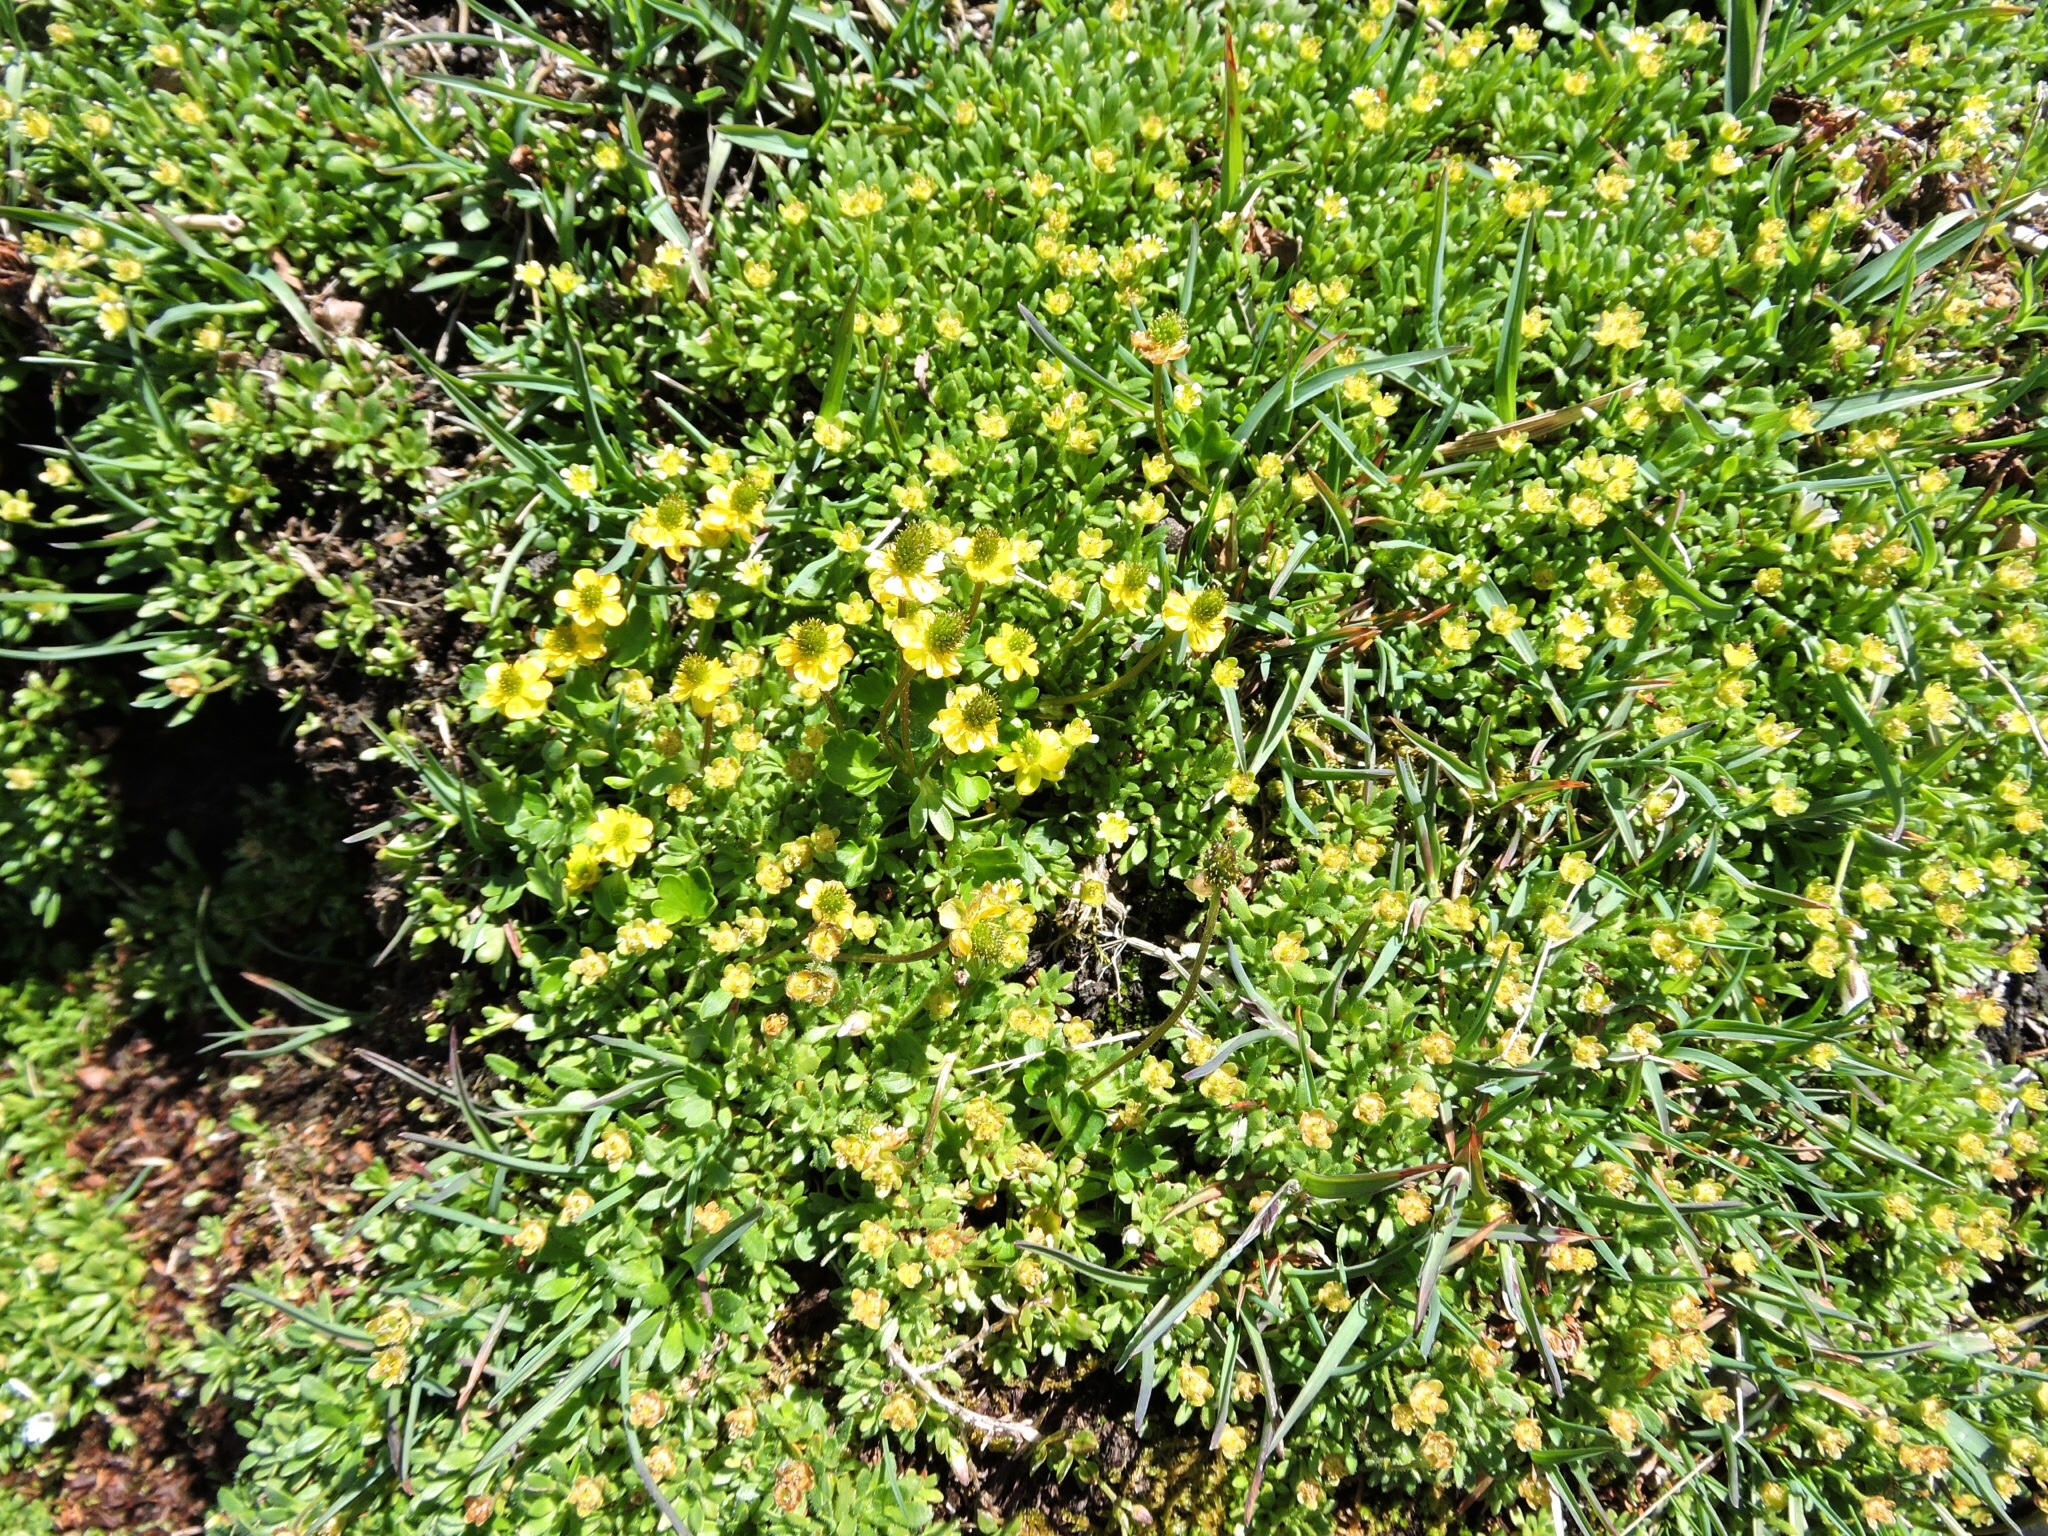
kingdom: Plantae
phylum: Tracheophyta
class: Magnoliopsida
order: Ranunculales
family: Ranunculaceae
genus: Ranunculus
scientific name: Ranunculus pygmaeus
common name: Dwarf buttercup
